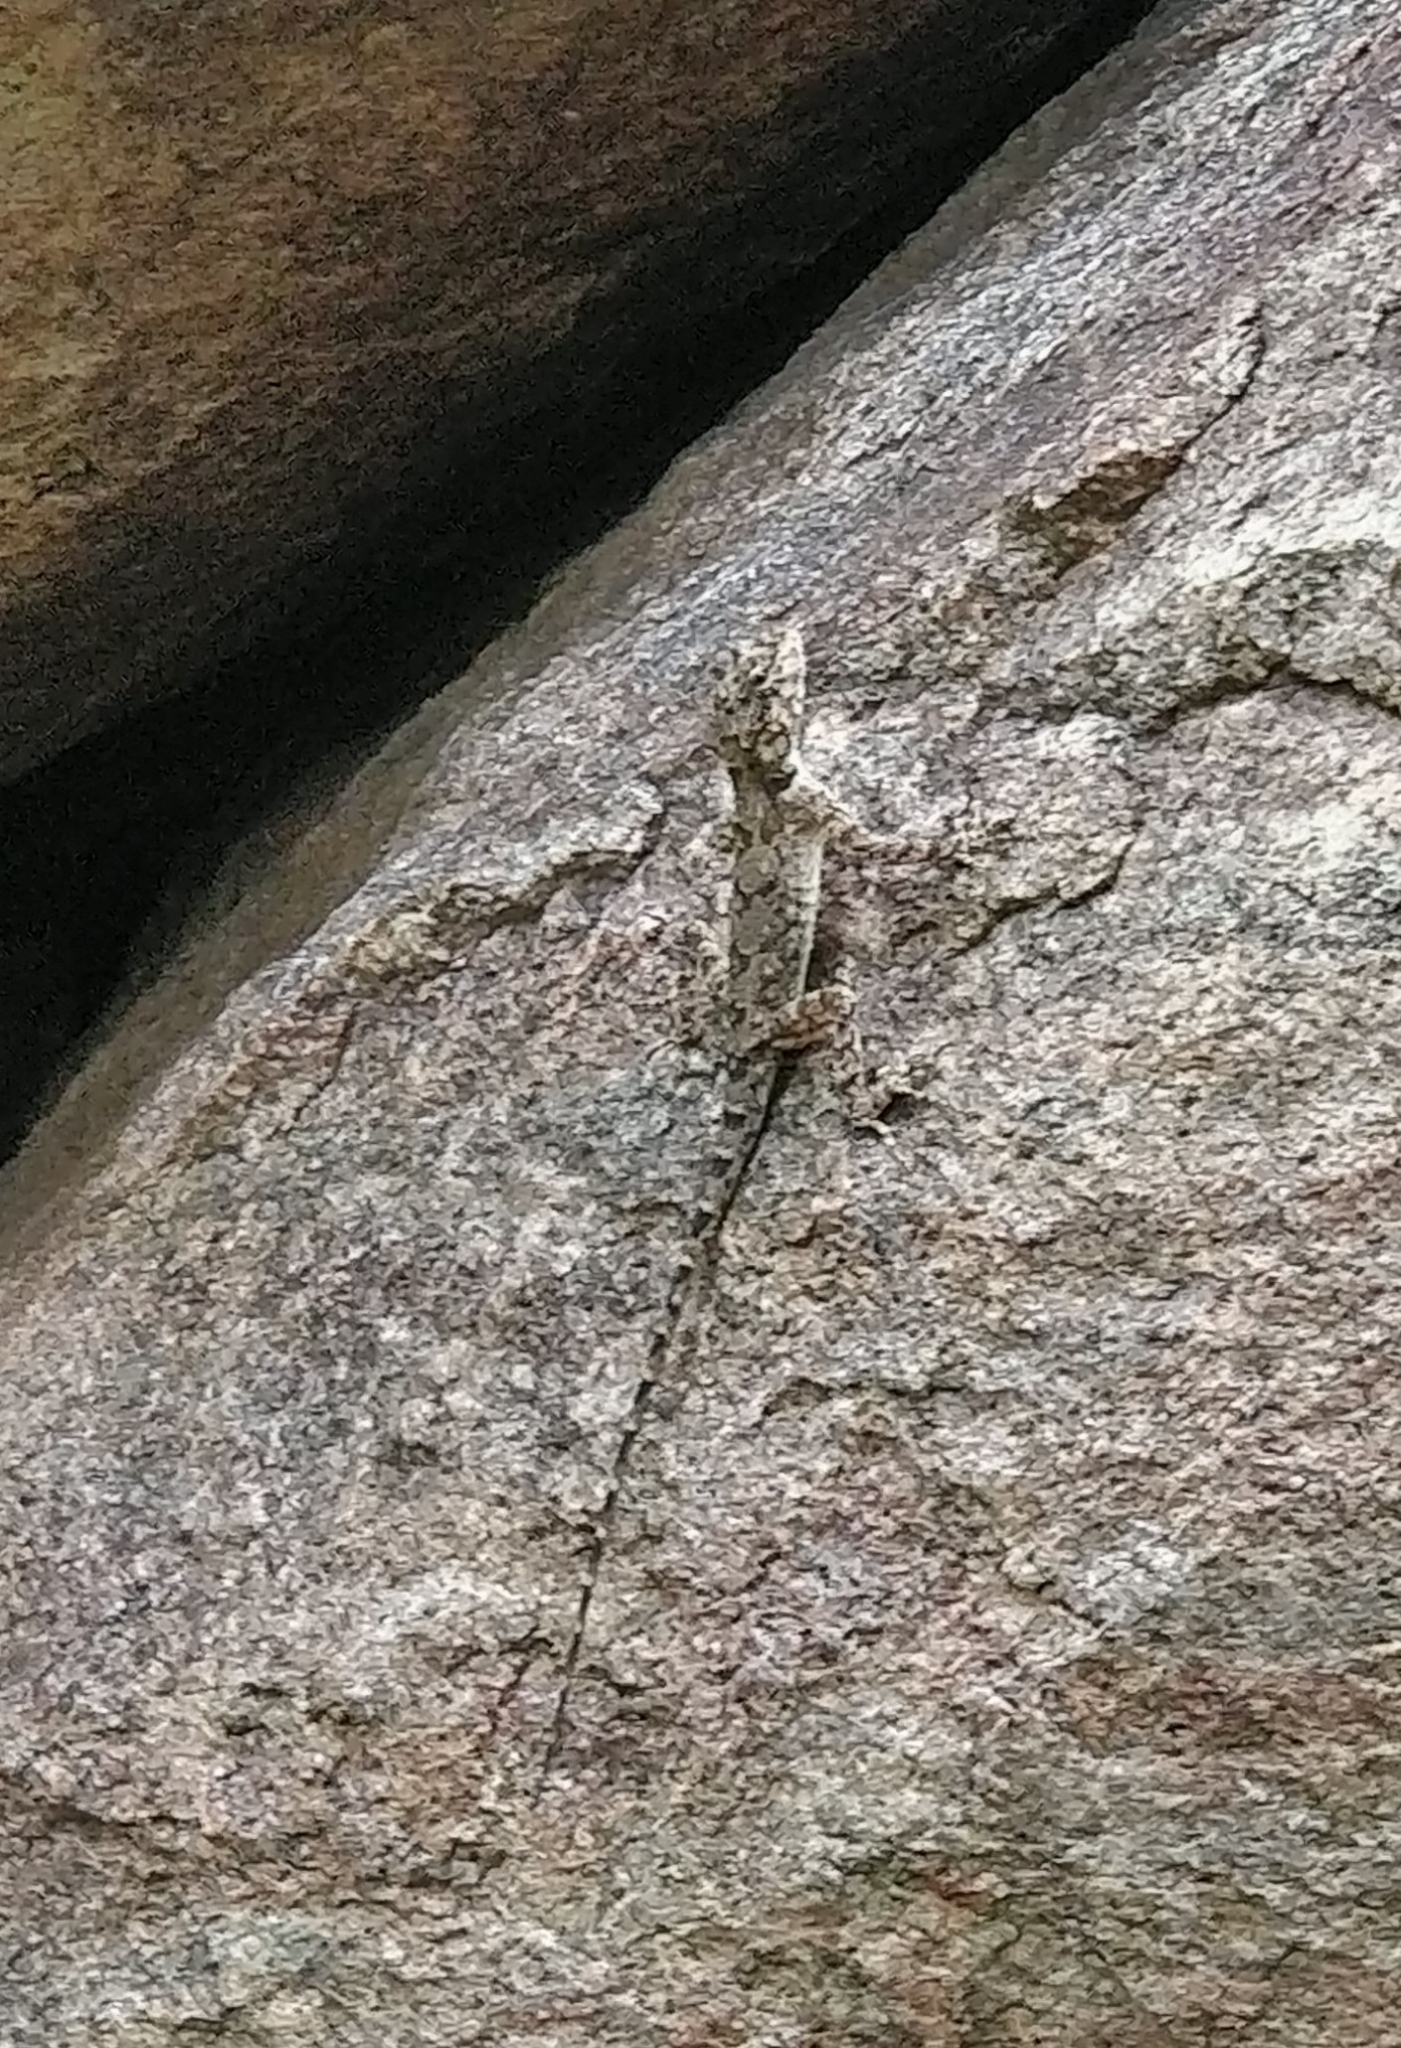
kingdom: Animalia
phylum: Chordata
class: Squamata
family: Agamidae
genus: Psammophilus
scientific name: Psammophilus dorsalis
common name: South indian rock agama
